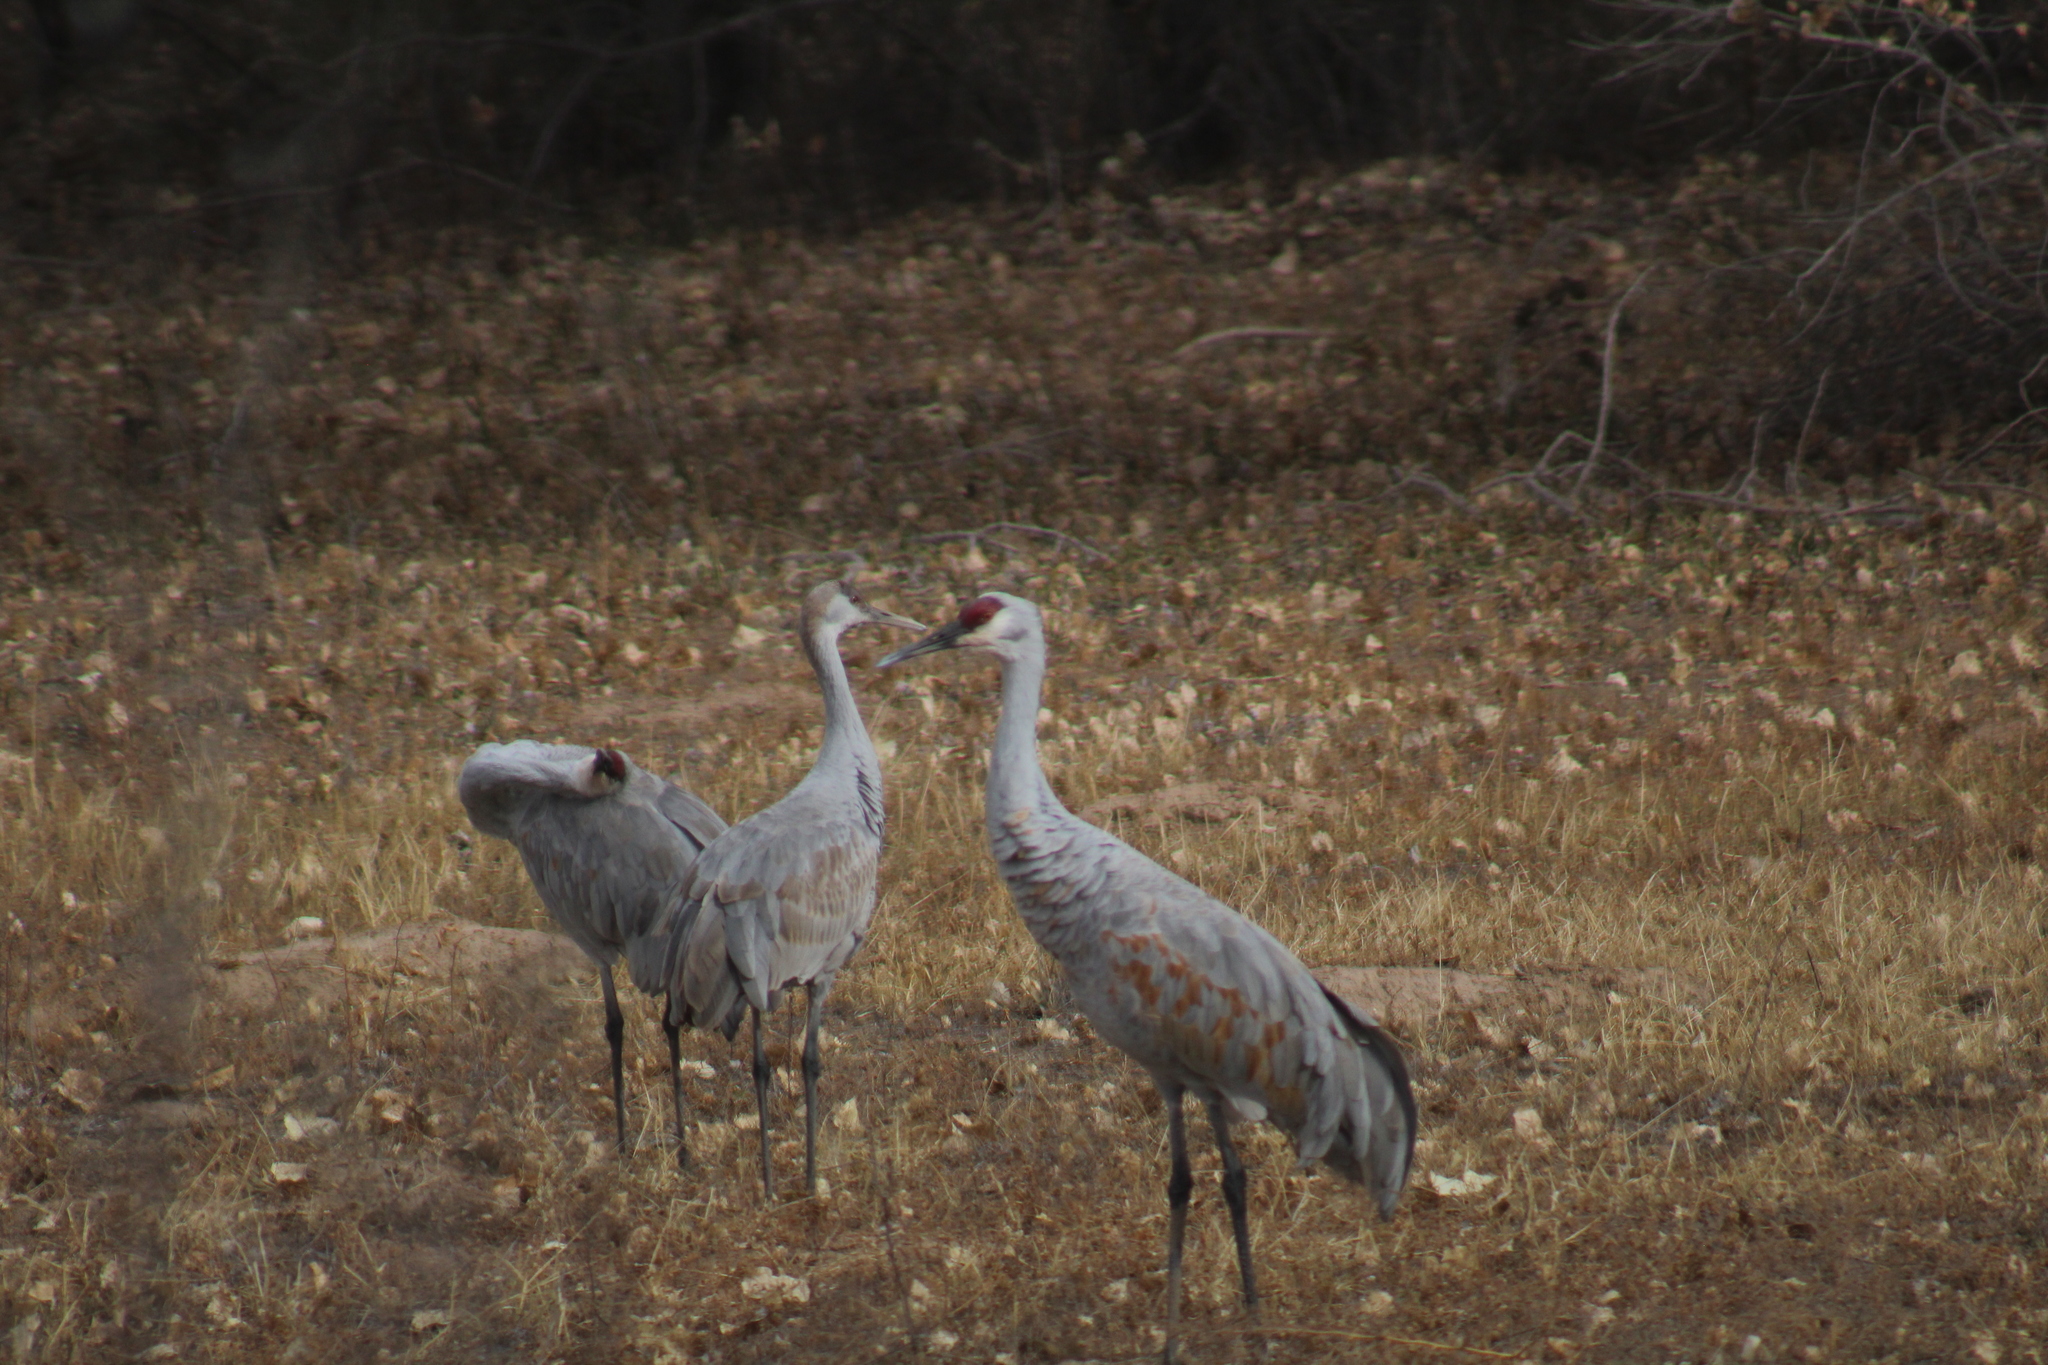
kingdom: Animalia
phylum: Chordata
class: Aves
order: Gruiformes
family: Gruidae
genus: Grus
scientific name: Grus canadensis
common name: Sandhill crane
